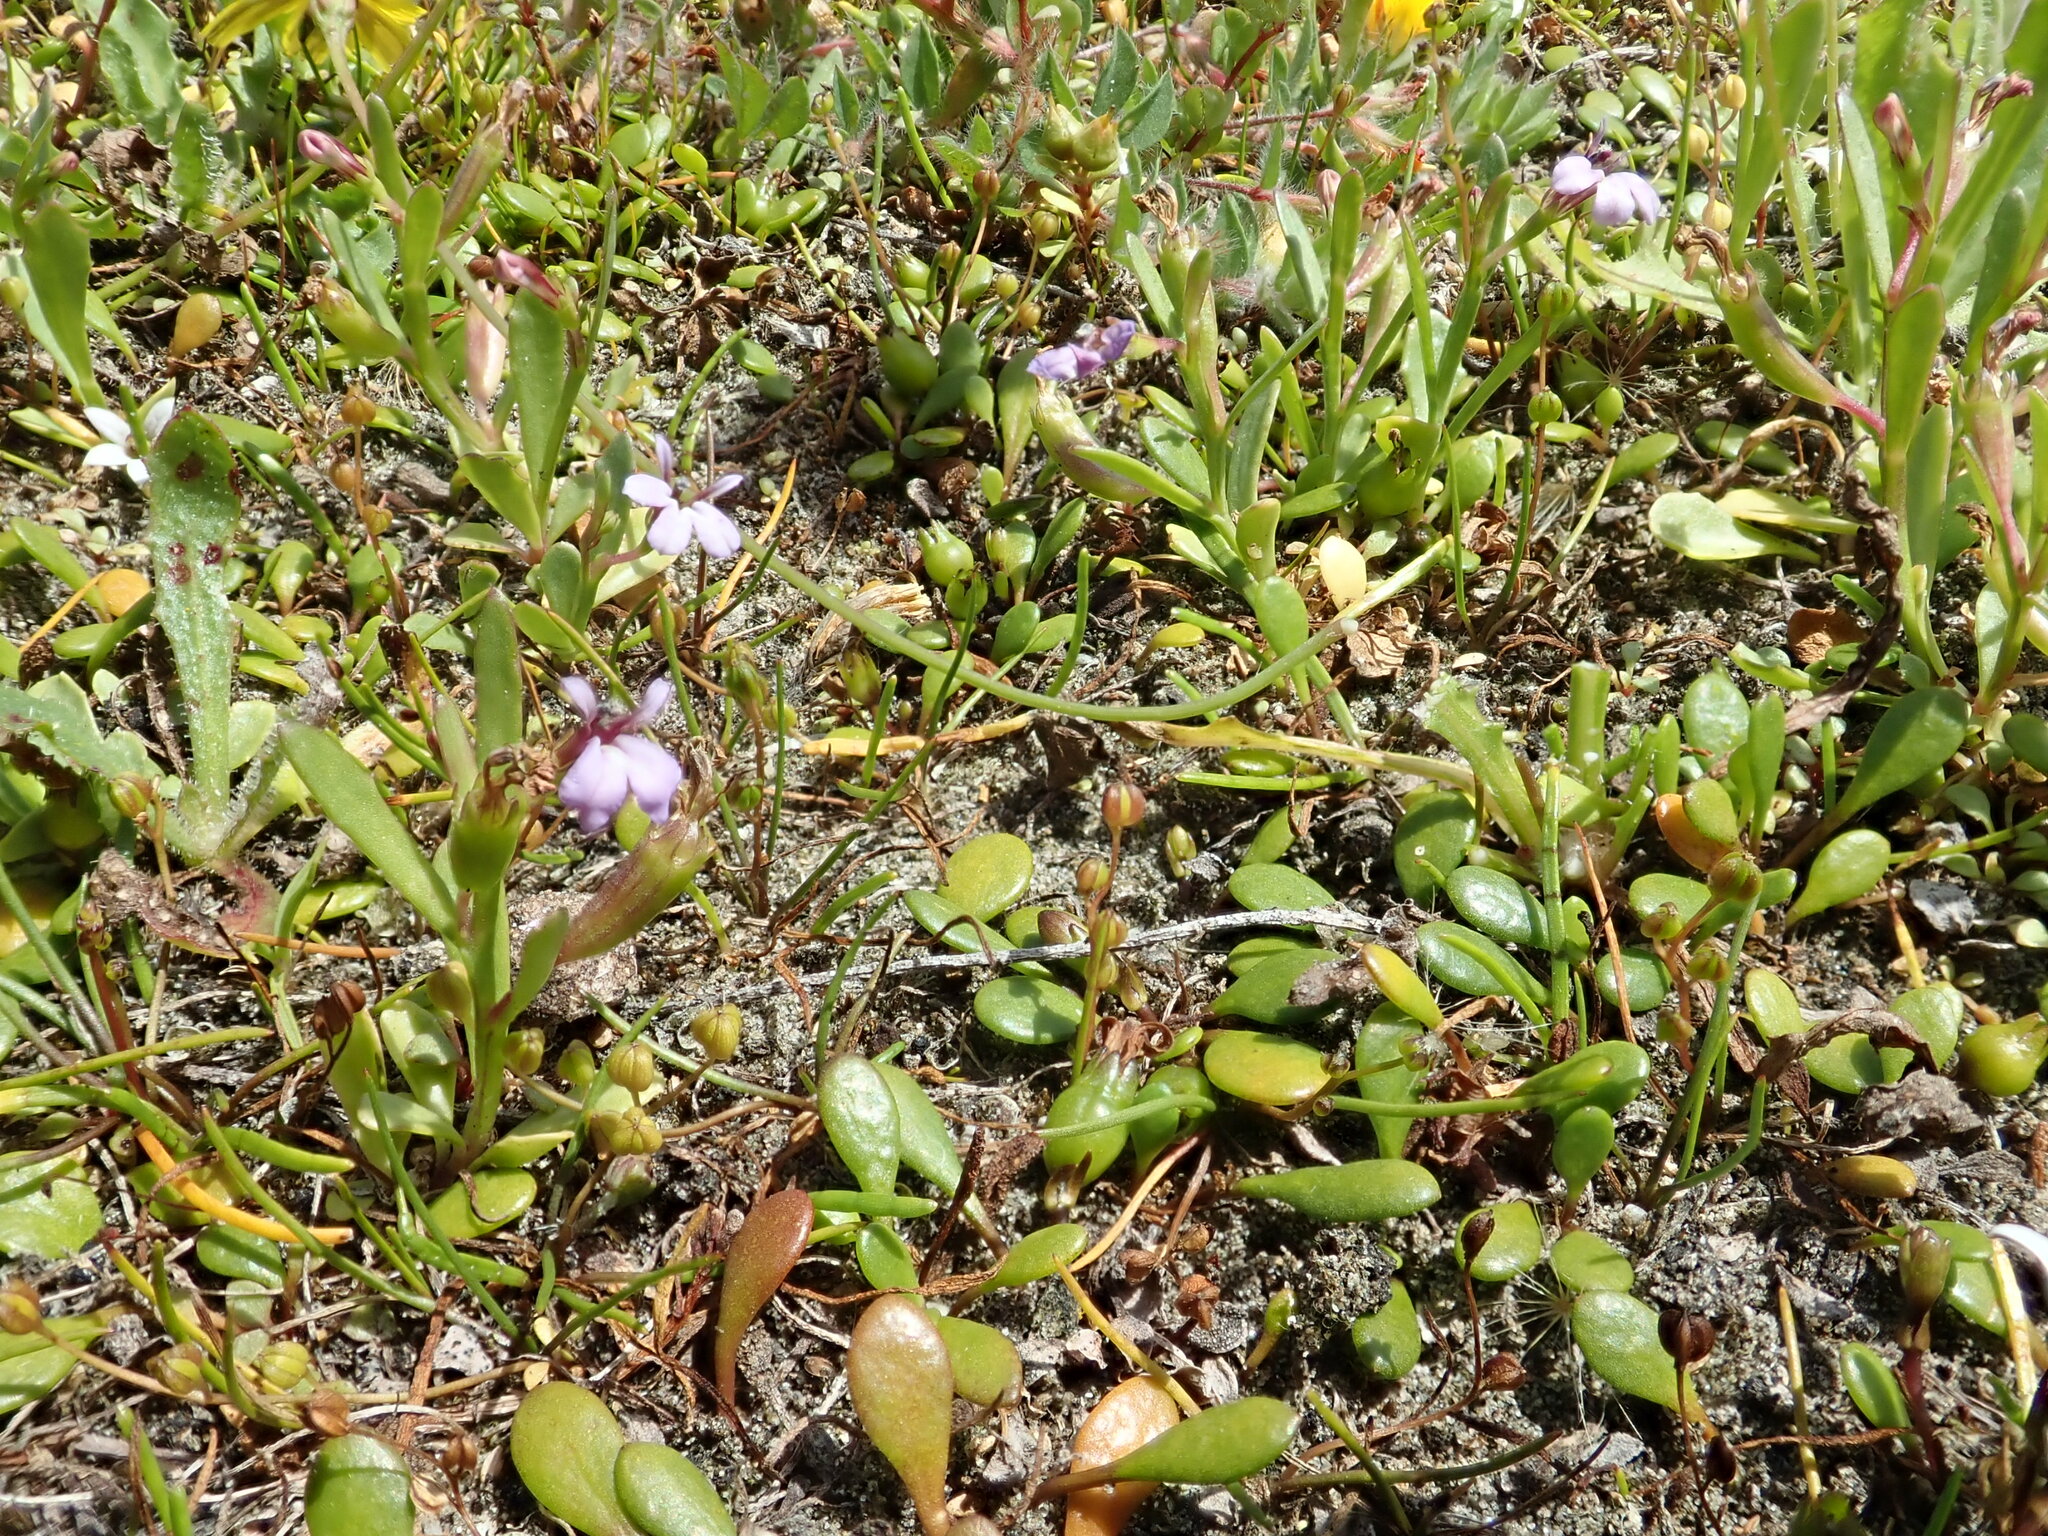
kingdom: Plantae
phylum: Tracheophyta
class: Magnoliopsida
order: Asterales
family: Campanulaceae
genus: Lobelia
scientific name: Lobelia anceps
